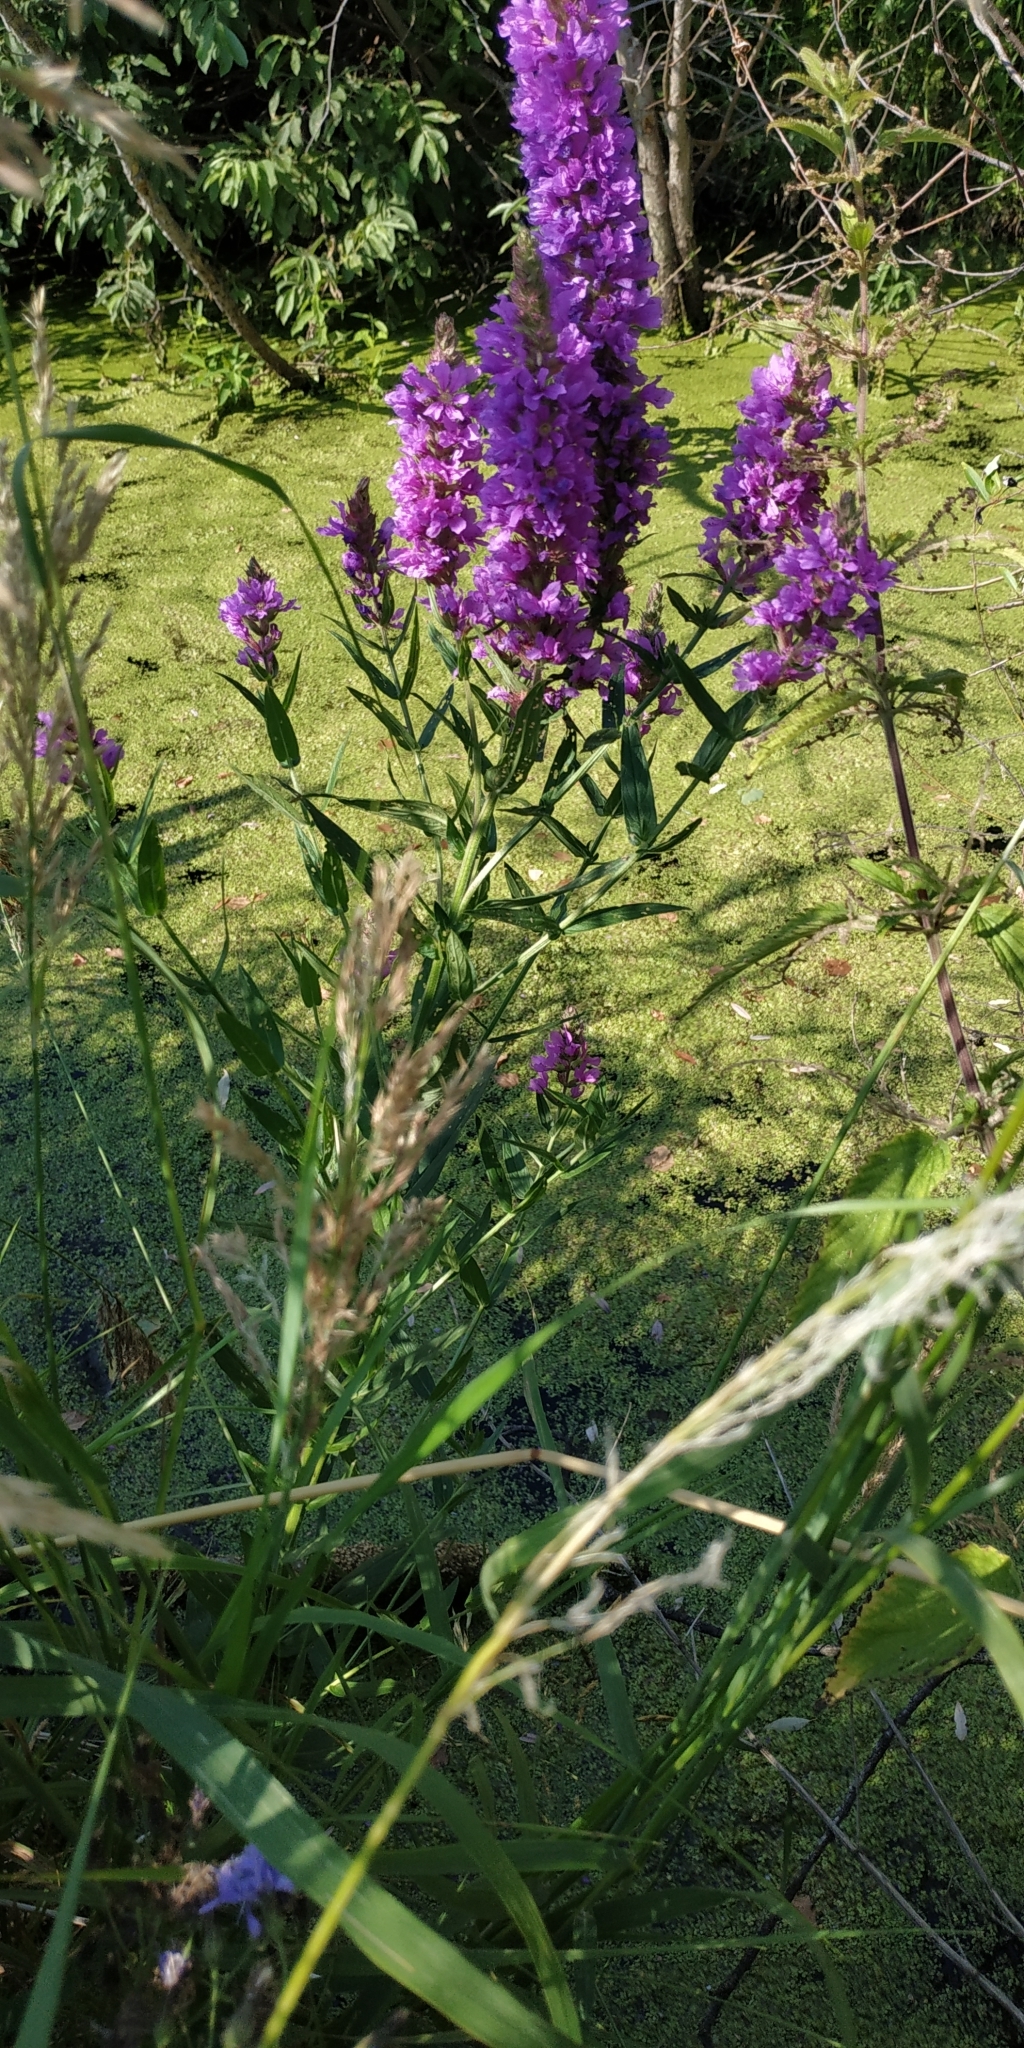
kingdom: Plantae
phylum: Tracheophyta
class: Magnoliopsida
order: Myrtales
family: Lythraceae
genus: Lythrum
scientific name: Lythrum salicaria
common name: Purple loosestrife
